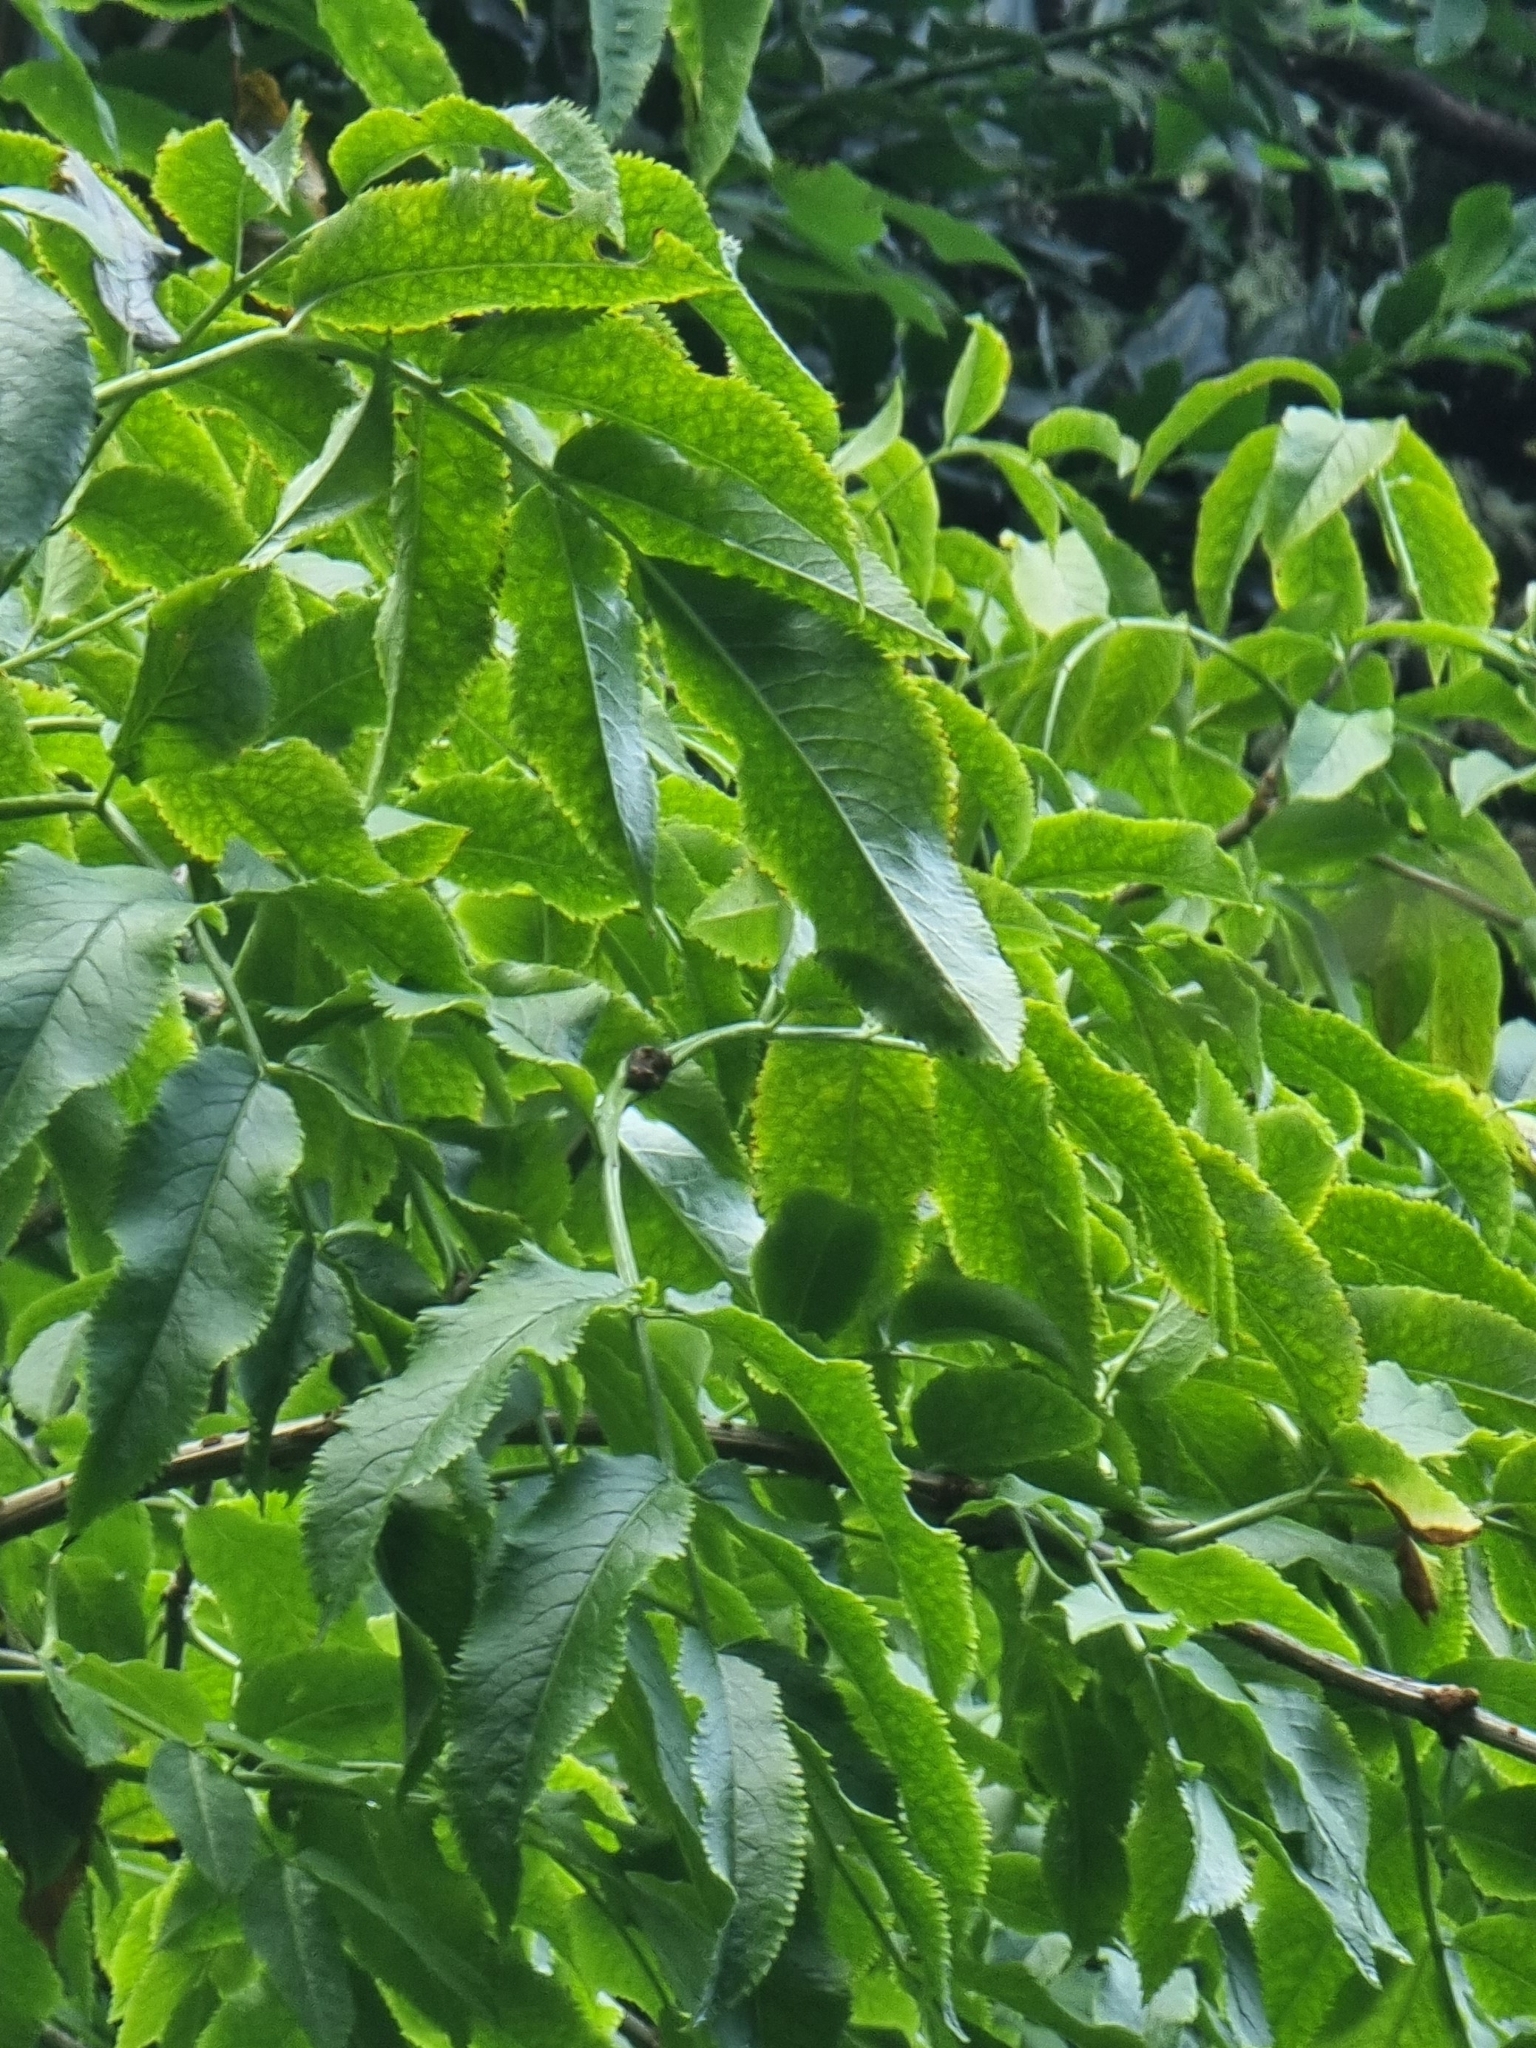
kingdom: Plantae
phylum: Tracheophyta
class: Magnoliopsida
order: Dipsacales
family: Viburnaceae
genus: Sambucus
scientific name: Sambucus lanceolata
